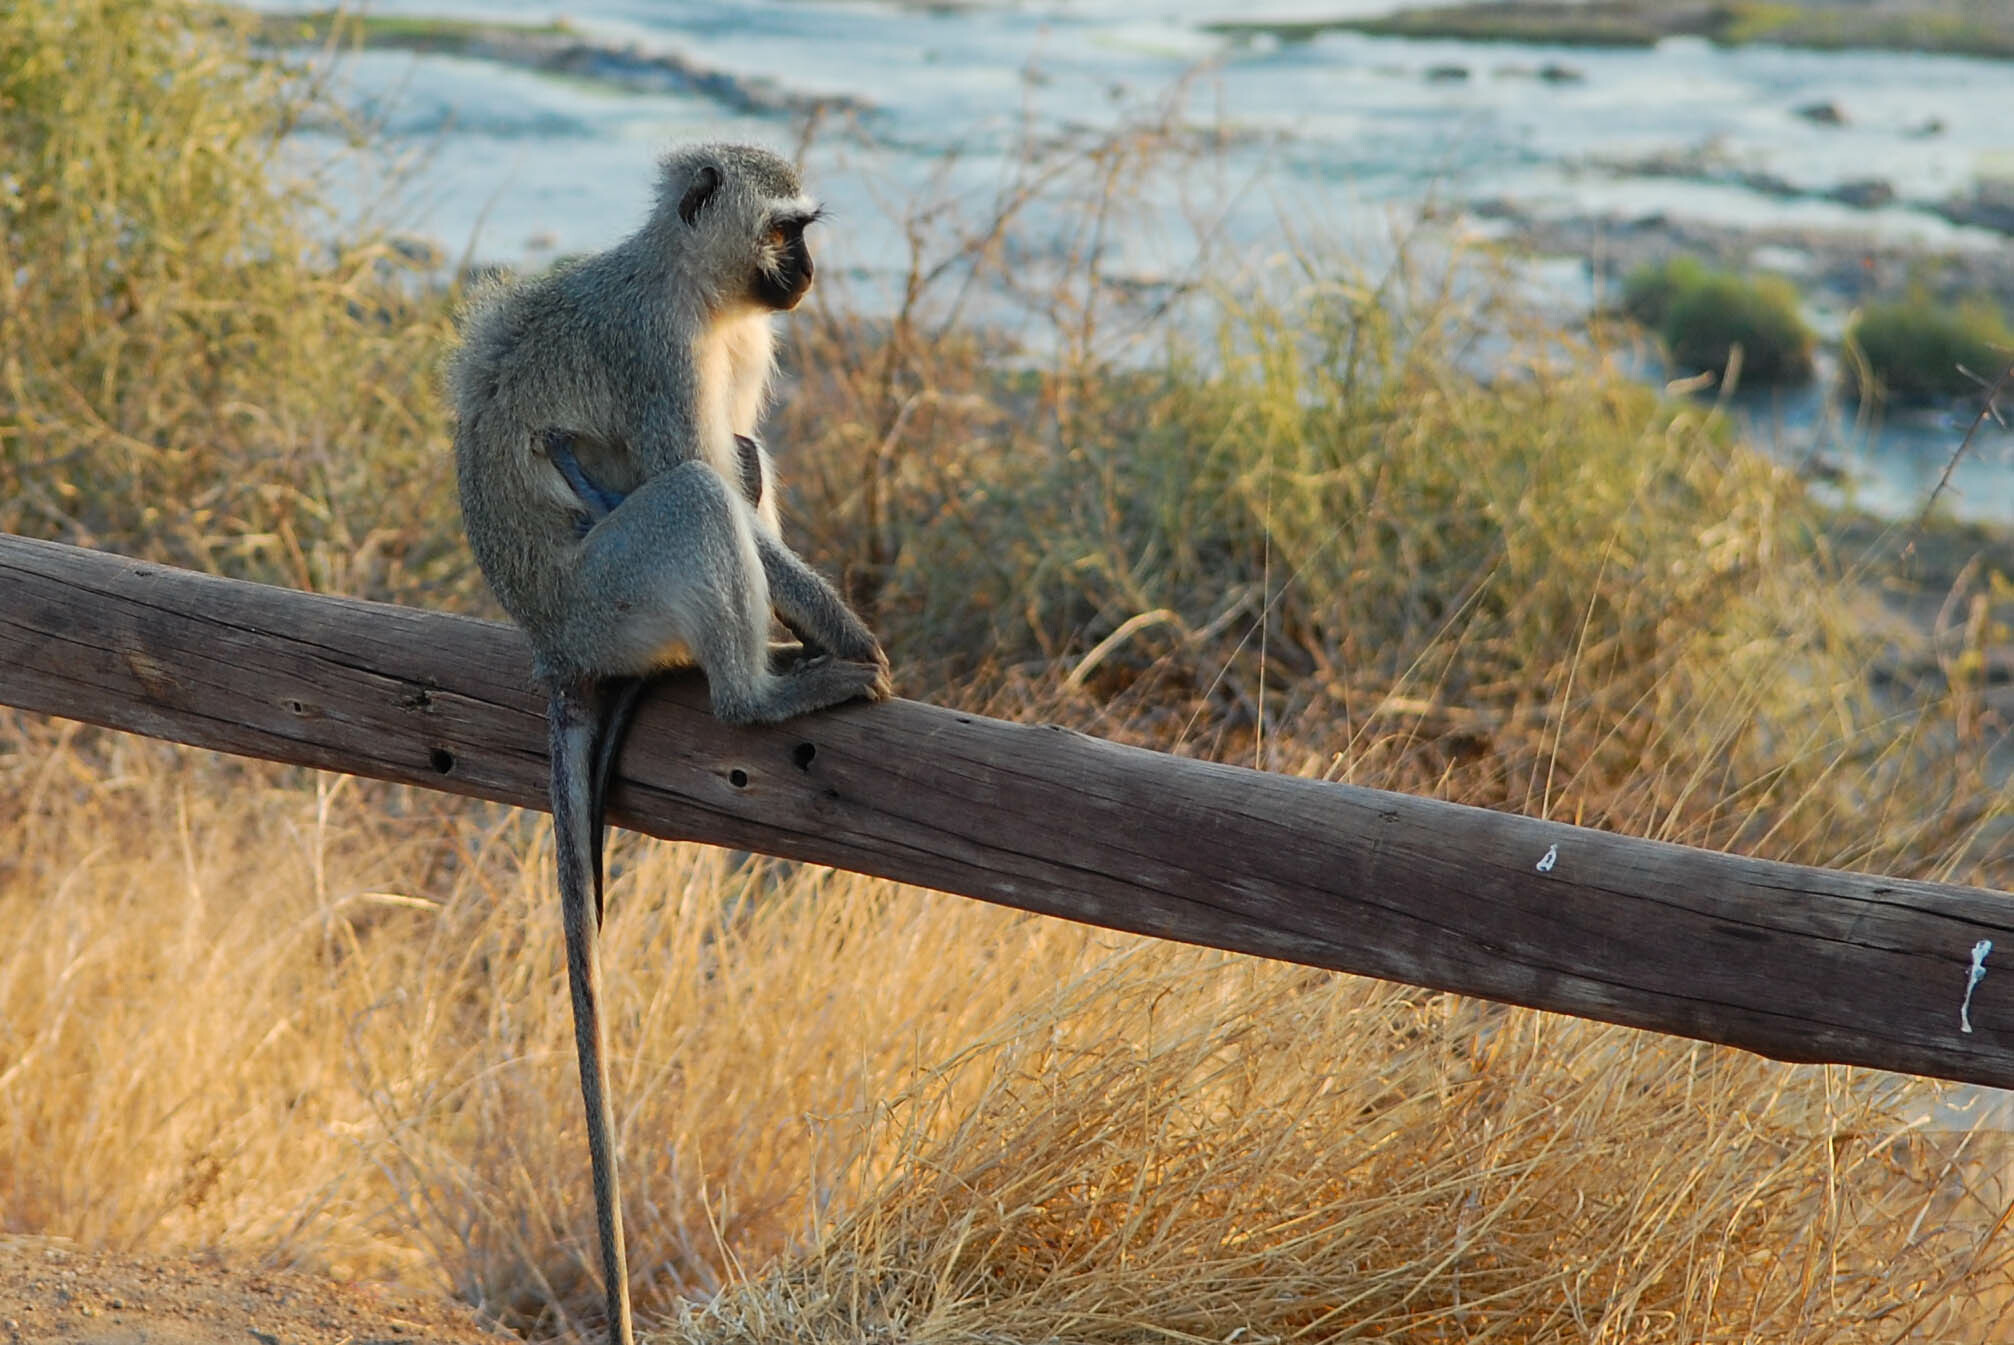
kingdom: Animalia
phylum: Chordata
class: Mammalia
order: Primates
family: Cercopithecidae
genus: Chlorocebus
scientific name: Chlorocebus pygerythrus
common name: Vervet monkey
